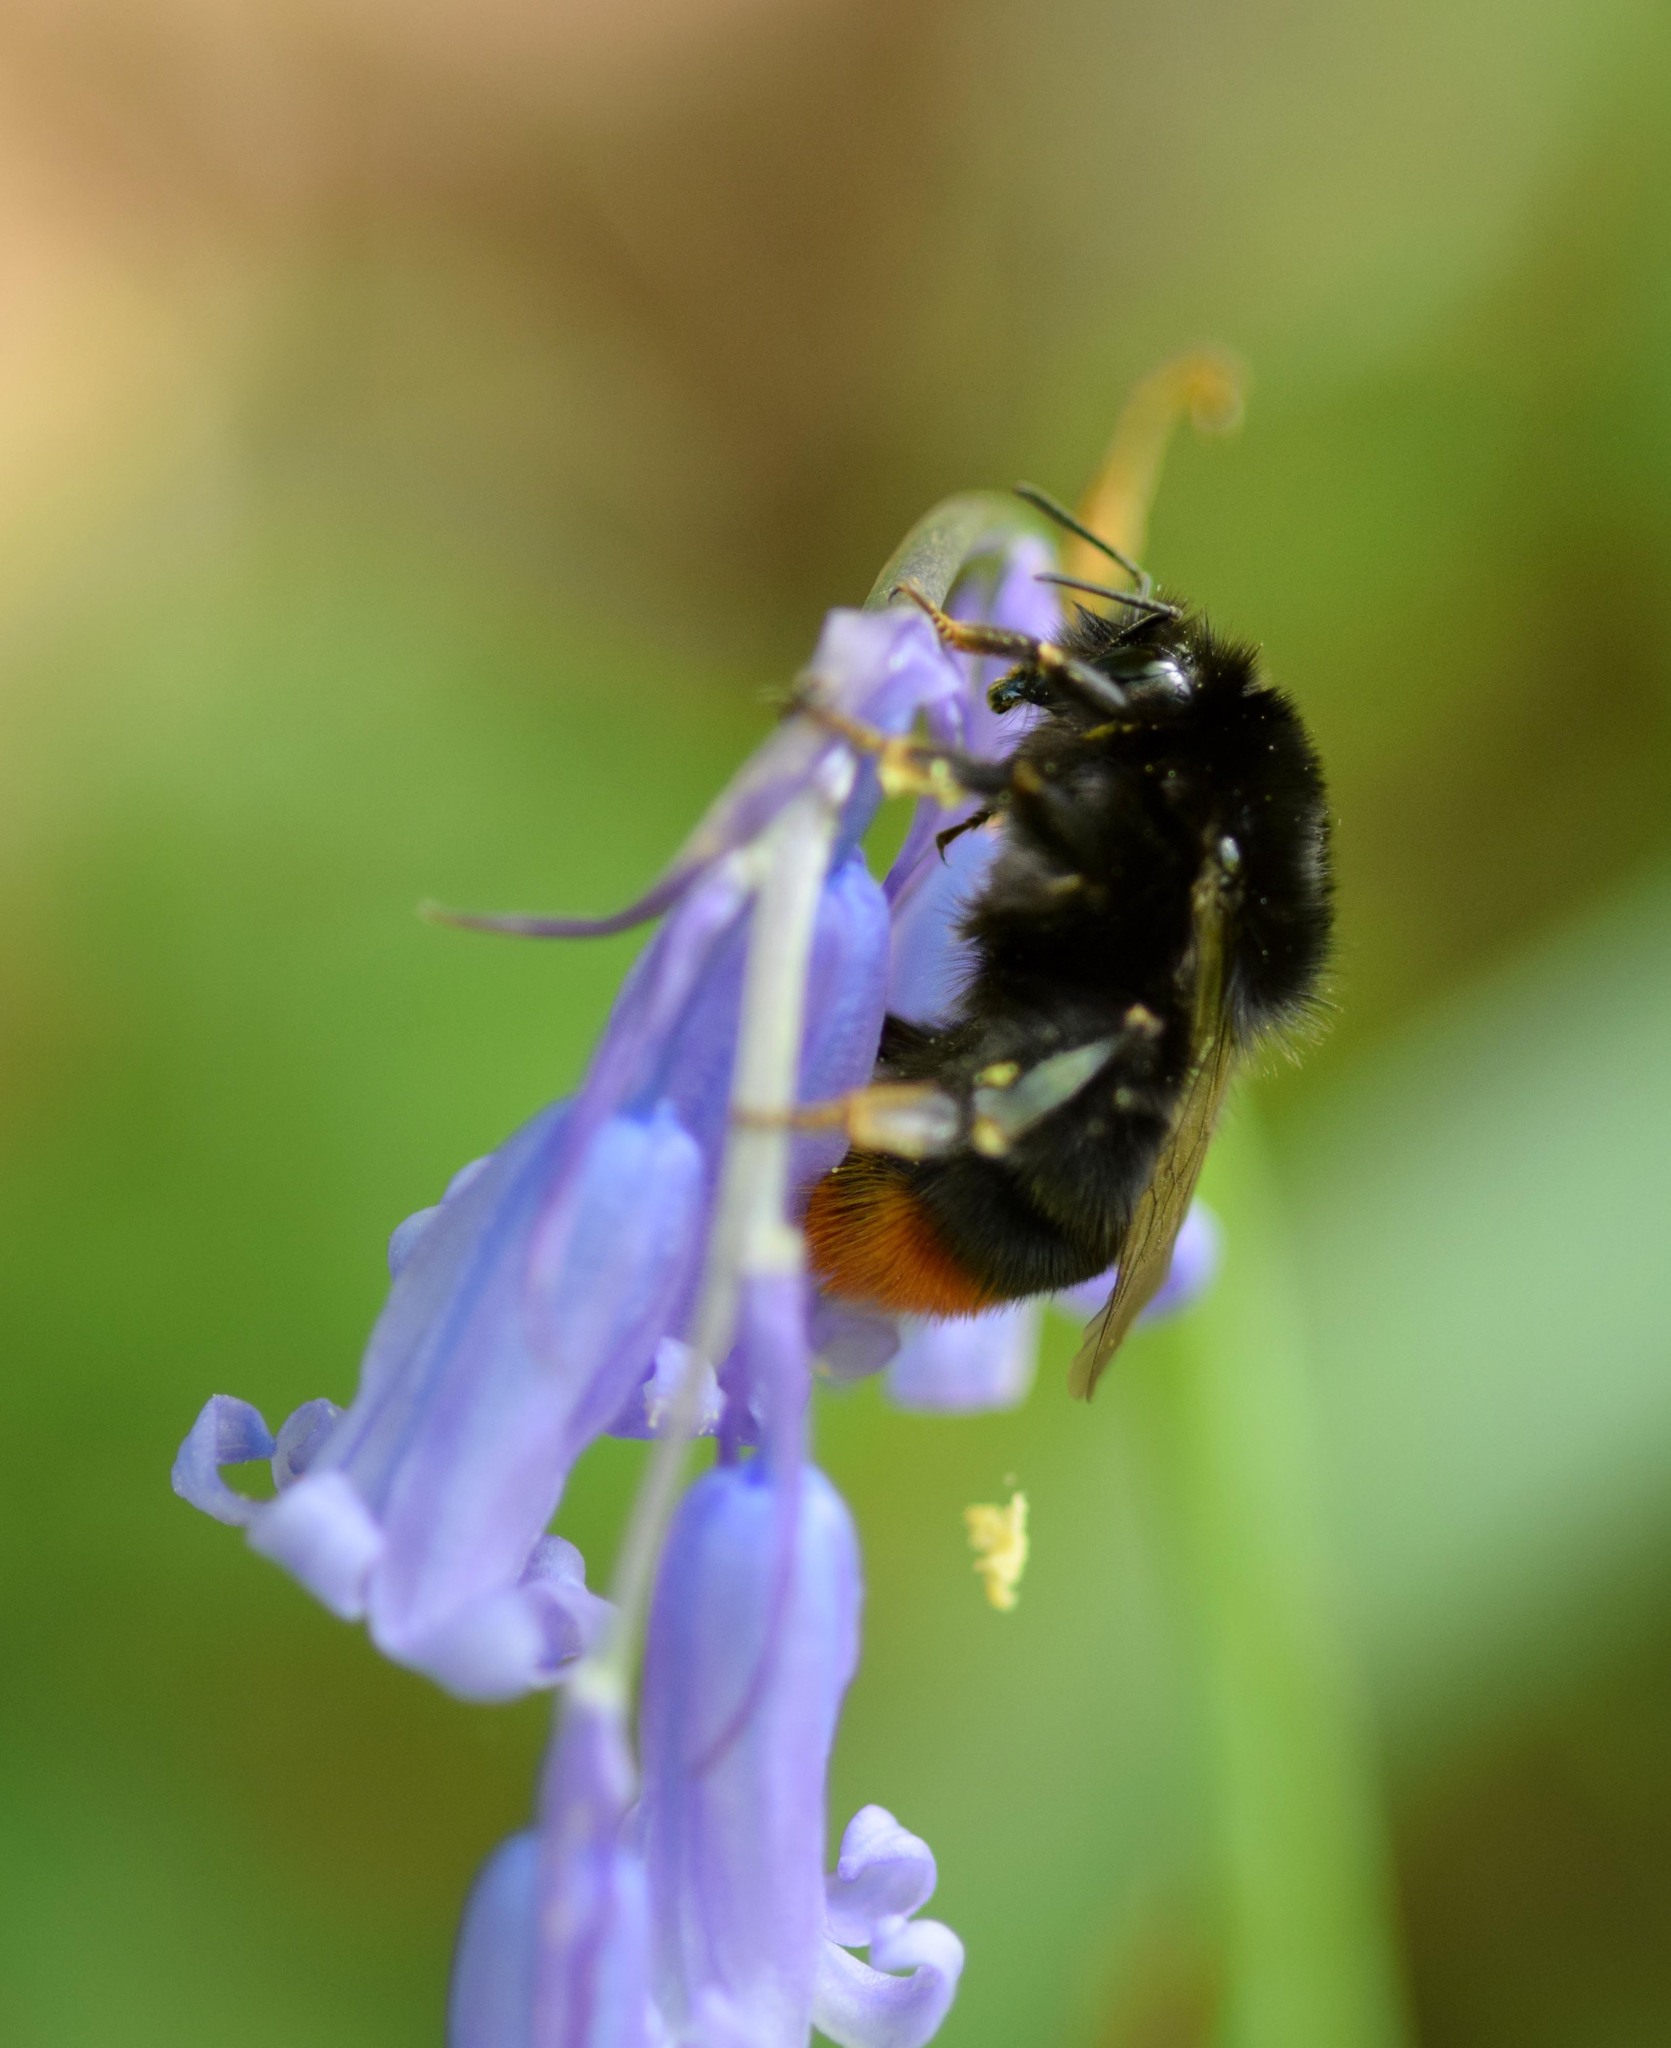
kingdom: Animalia
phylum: Arthropoda
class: Insecta
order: Hymenoptera
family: Apidae
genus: Bombus
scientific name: Bombus lapidarius
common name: Large red-tailed humble-bee
